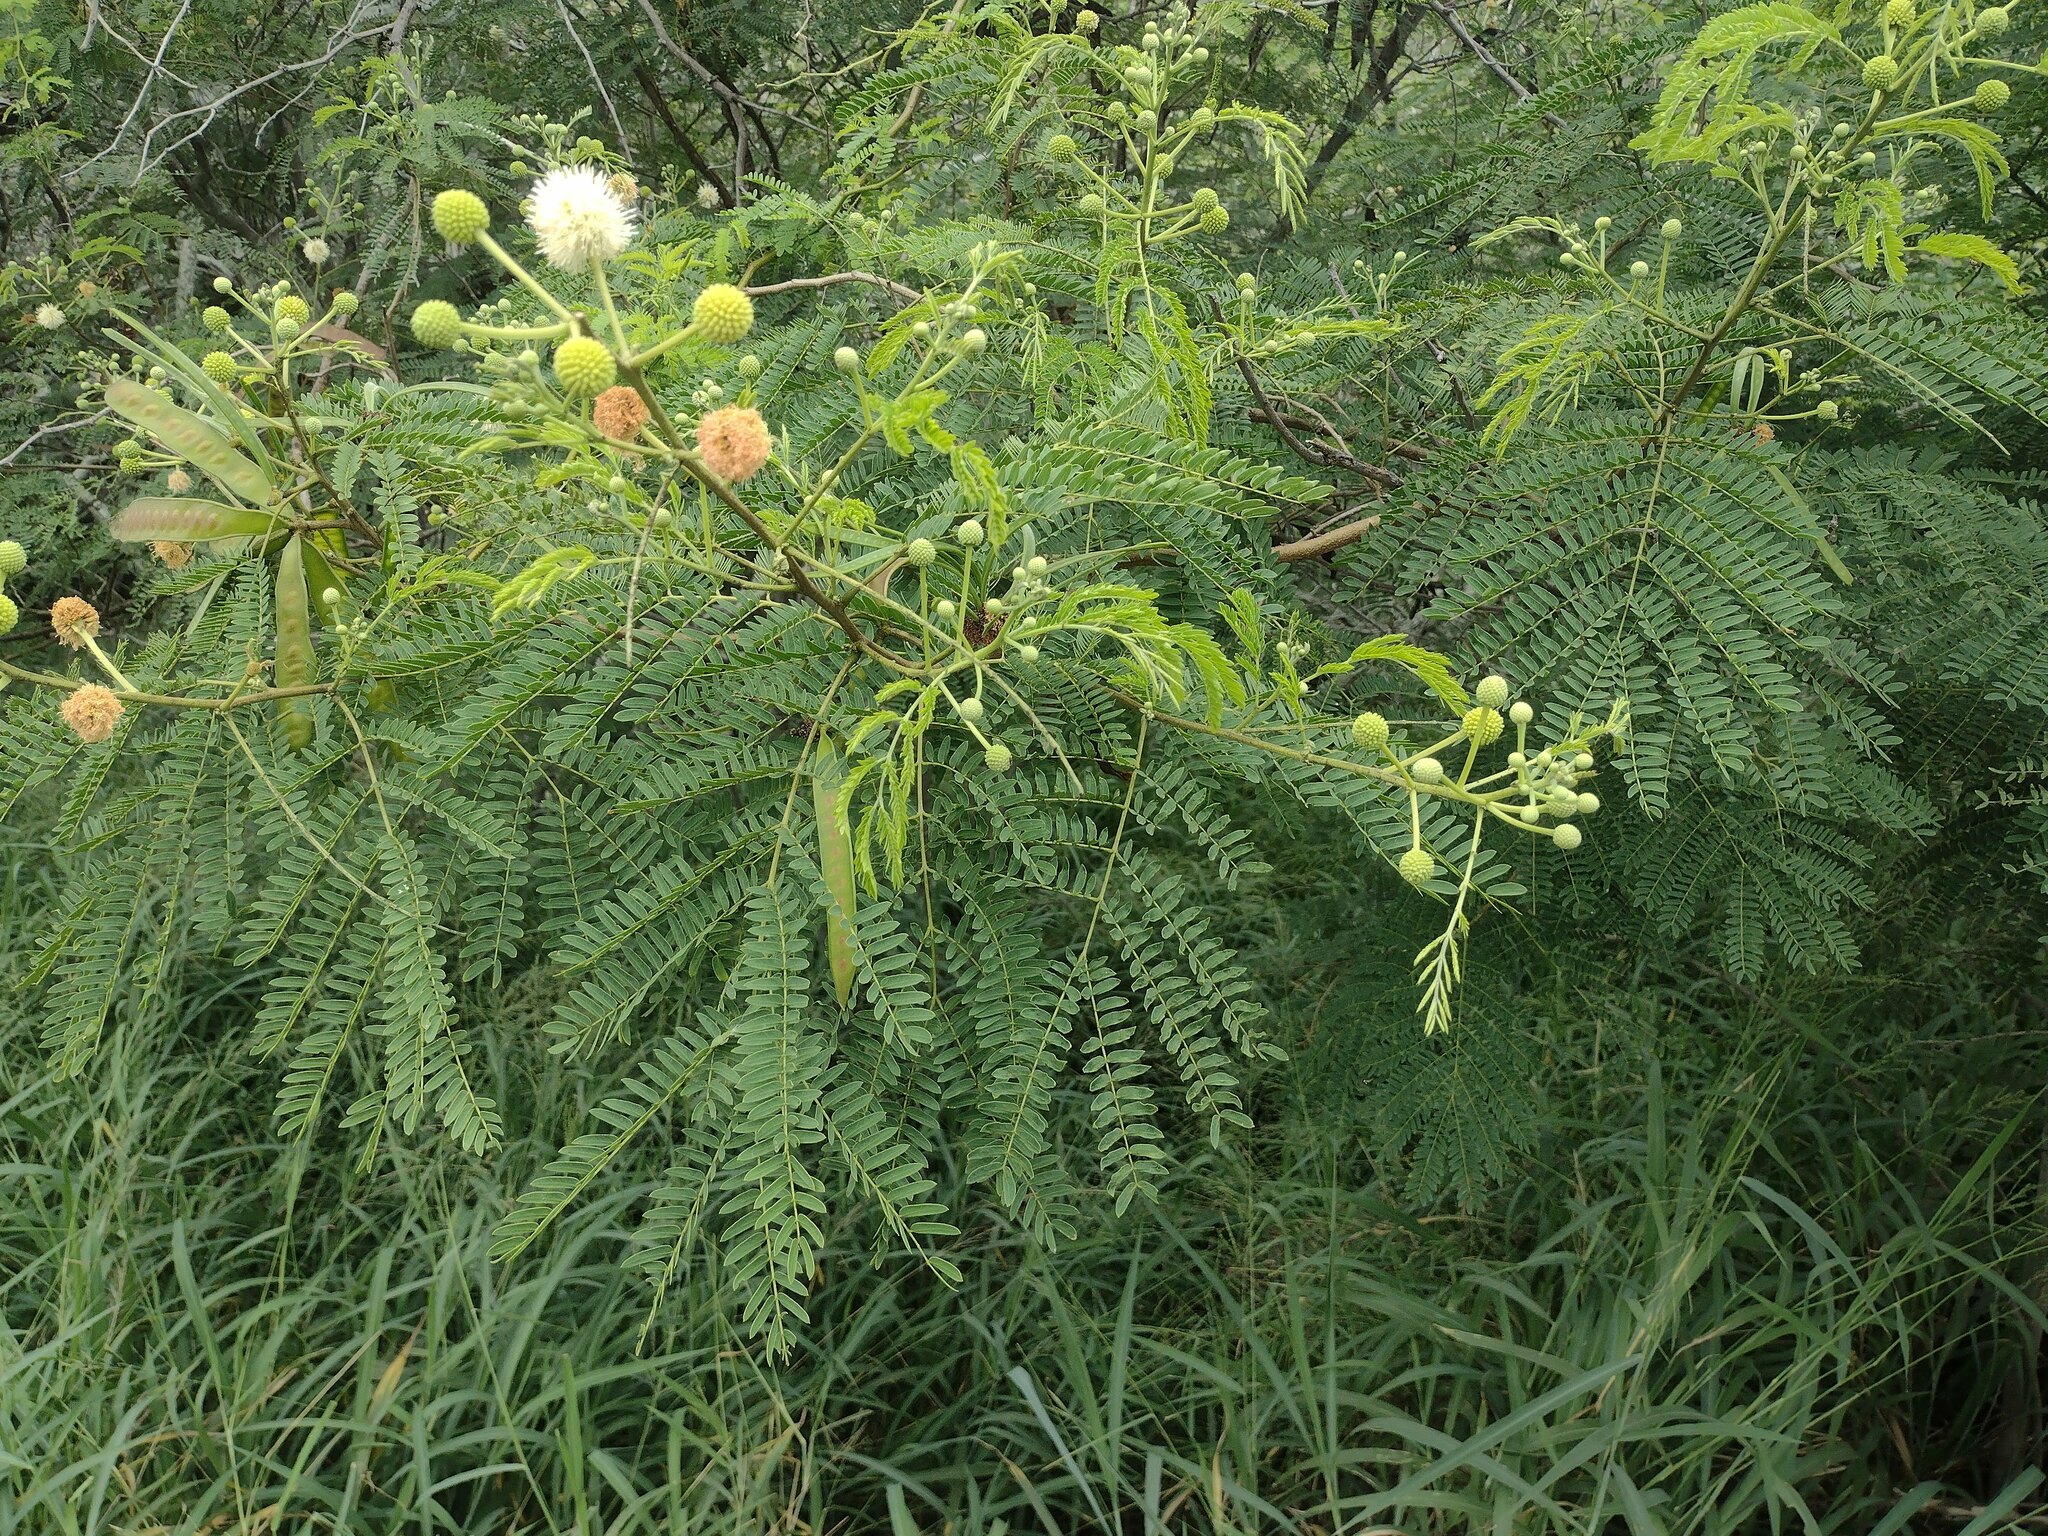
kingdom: Plantae
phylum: Tracheophyta
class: Magnoliopsida
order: Fabales
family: Fabaceae
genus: Leucaena
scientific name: Leucaena leucocephala
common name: White leadtree
